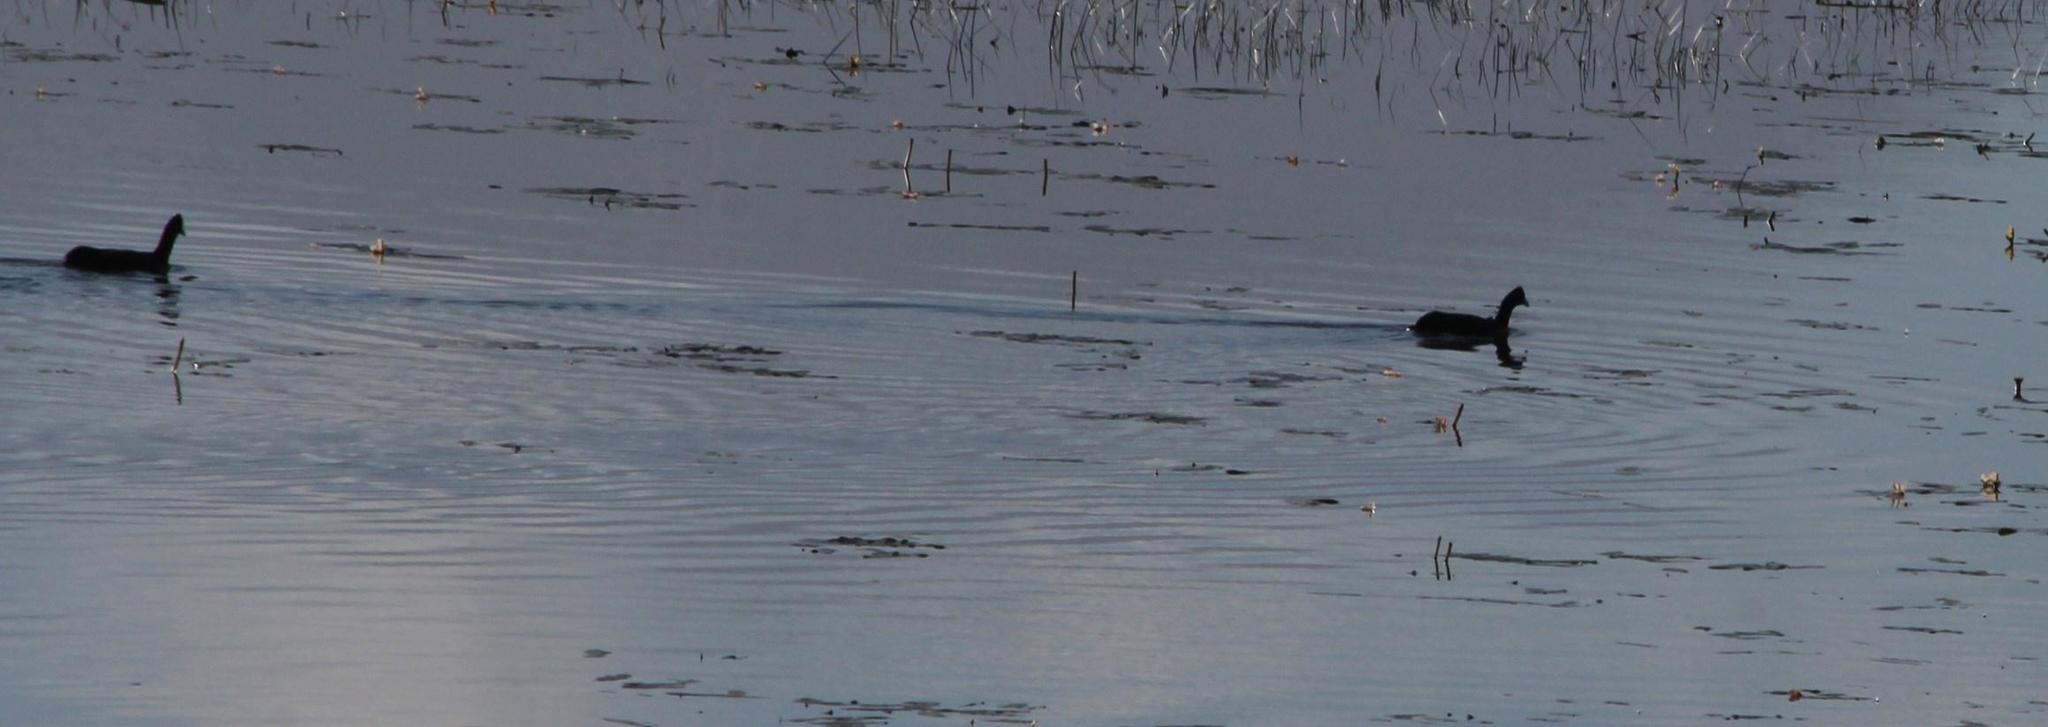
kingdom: Animalia
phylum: Chordata
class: Aves
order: Gruiformes
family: Rallidae
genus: Fulica
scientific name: Fulica cristata
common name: Red-knobbed coot
